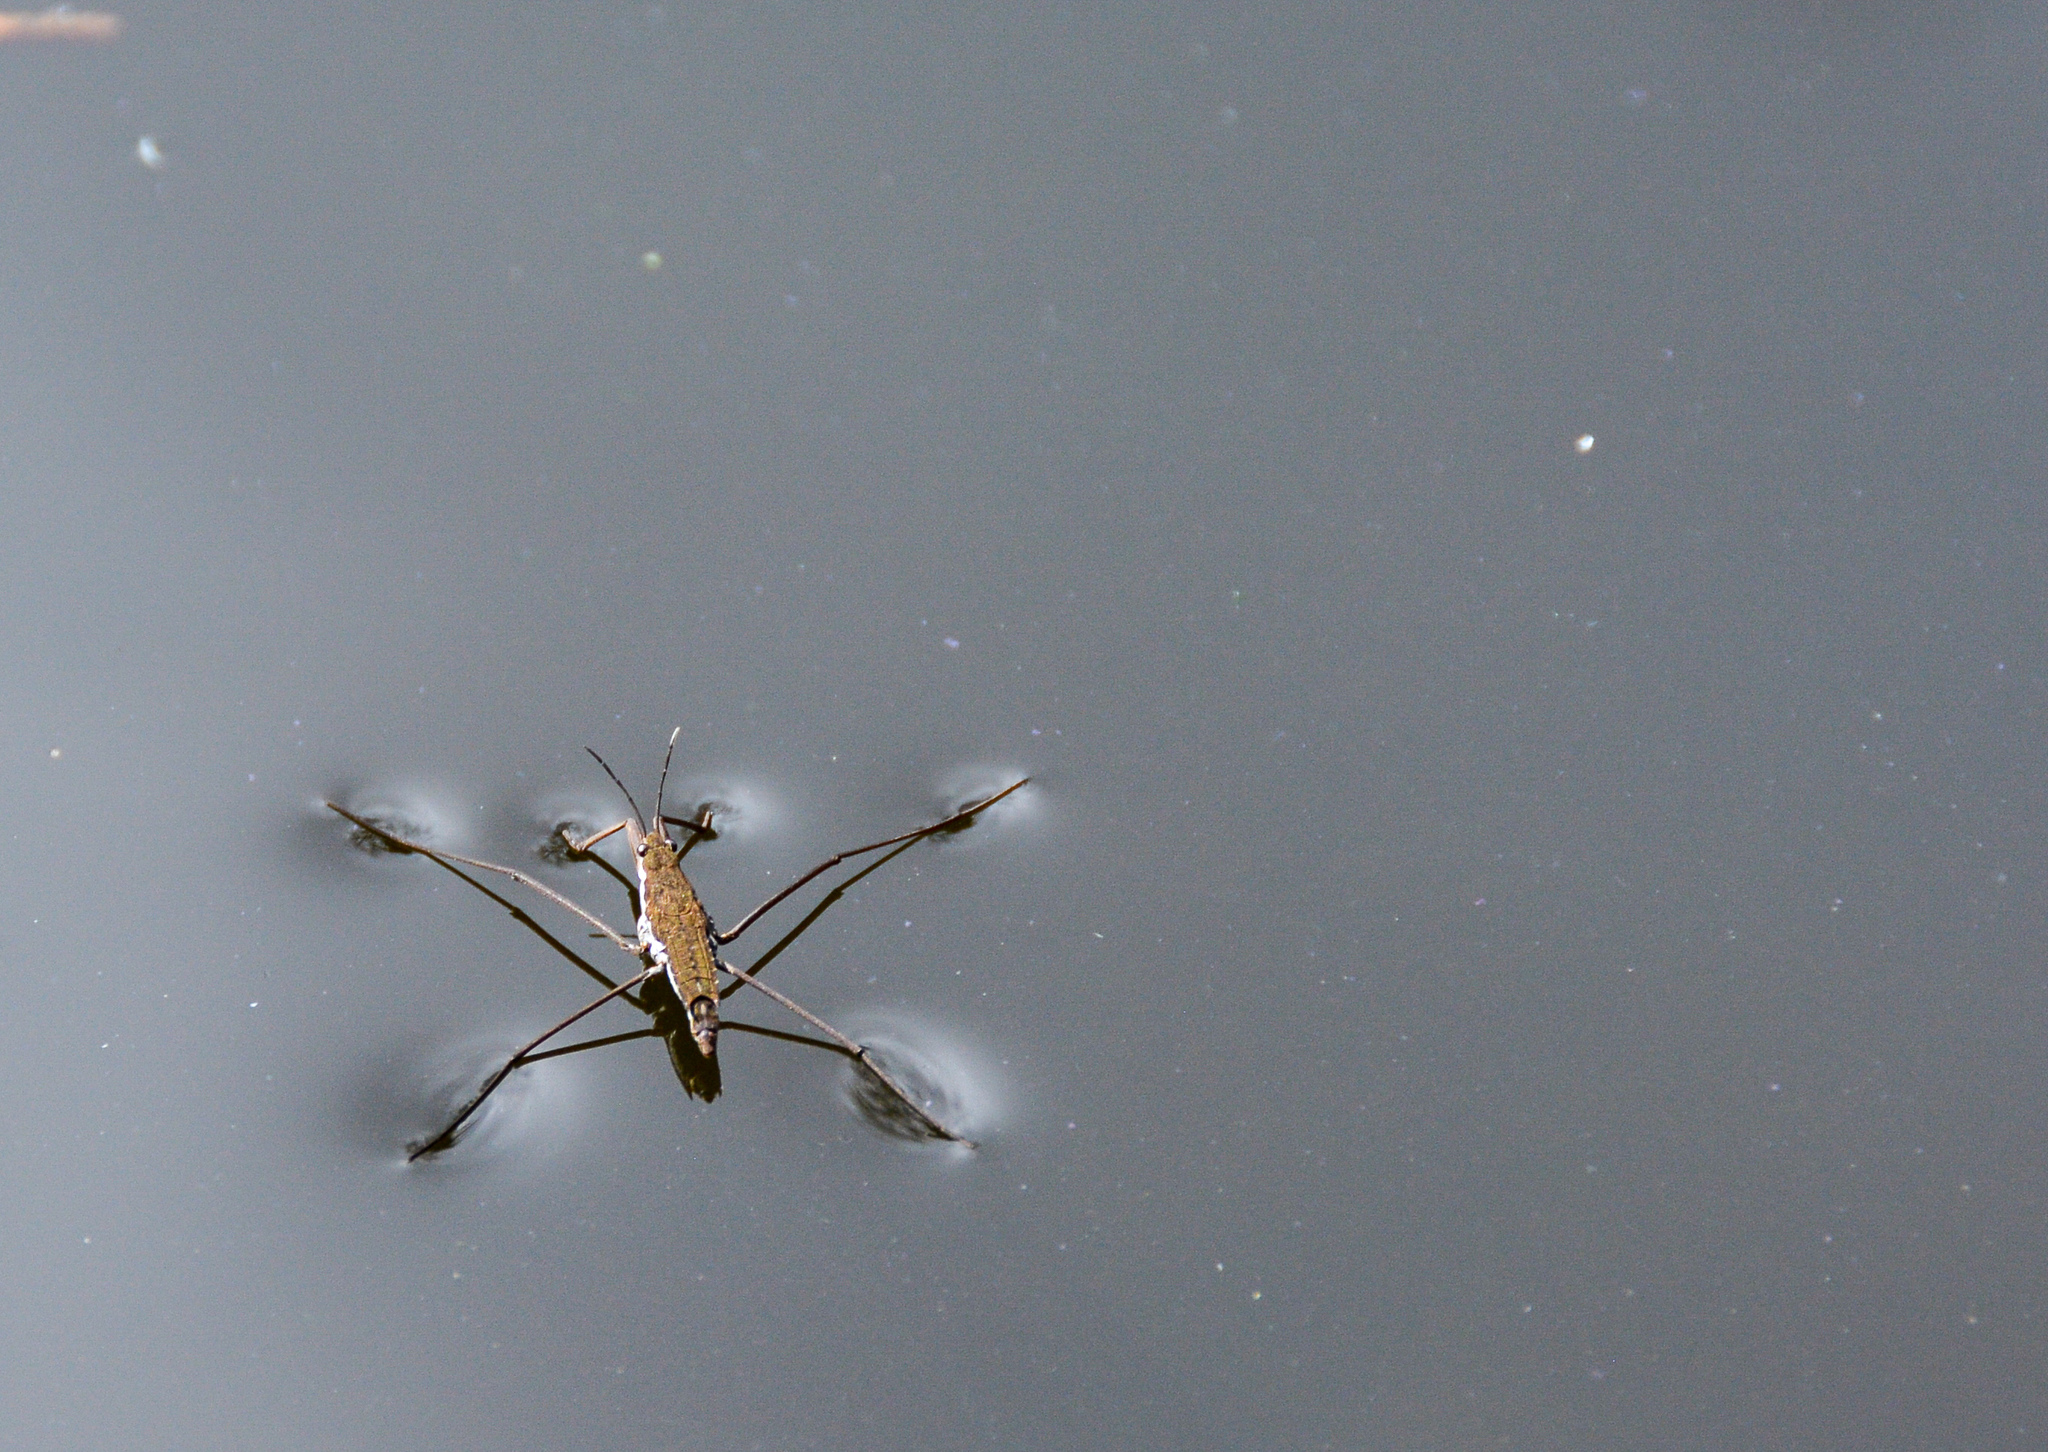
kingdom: Animalia
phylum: Arthropoda
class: Insecta
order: Hemiptera
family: Gerridae
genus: Aquarius
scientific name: Aquarius remigis
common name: Common water strider
